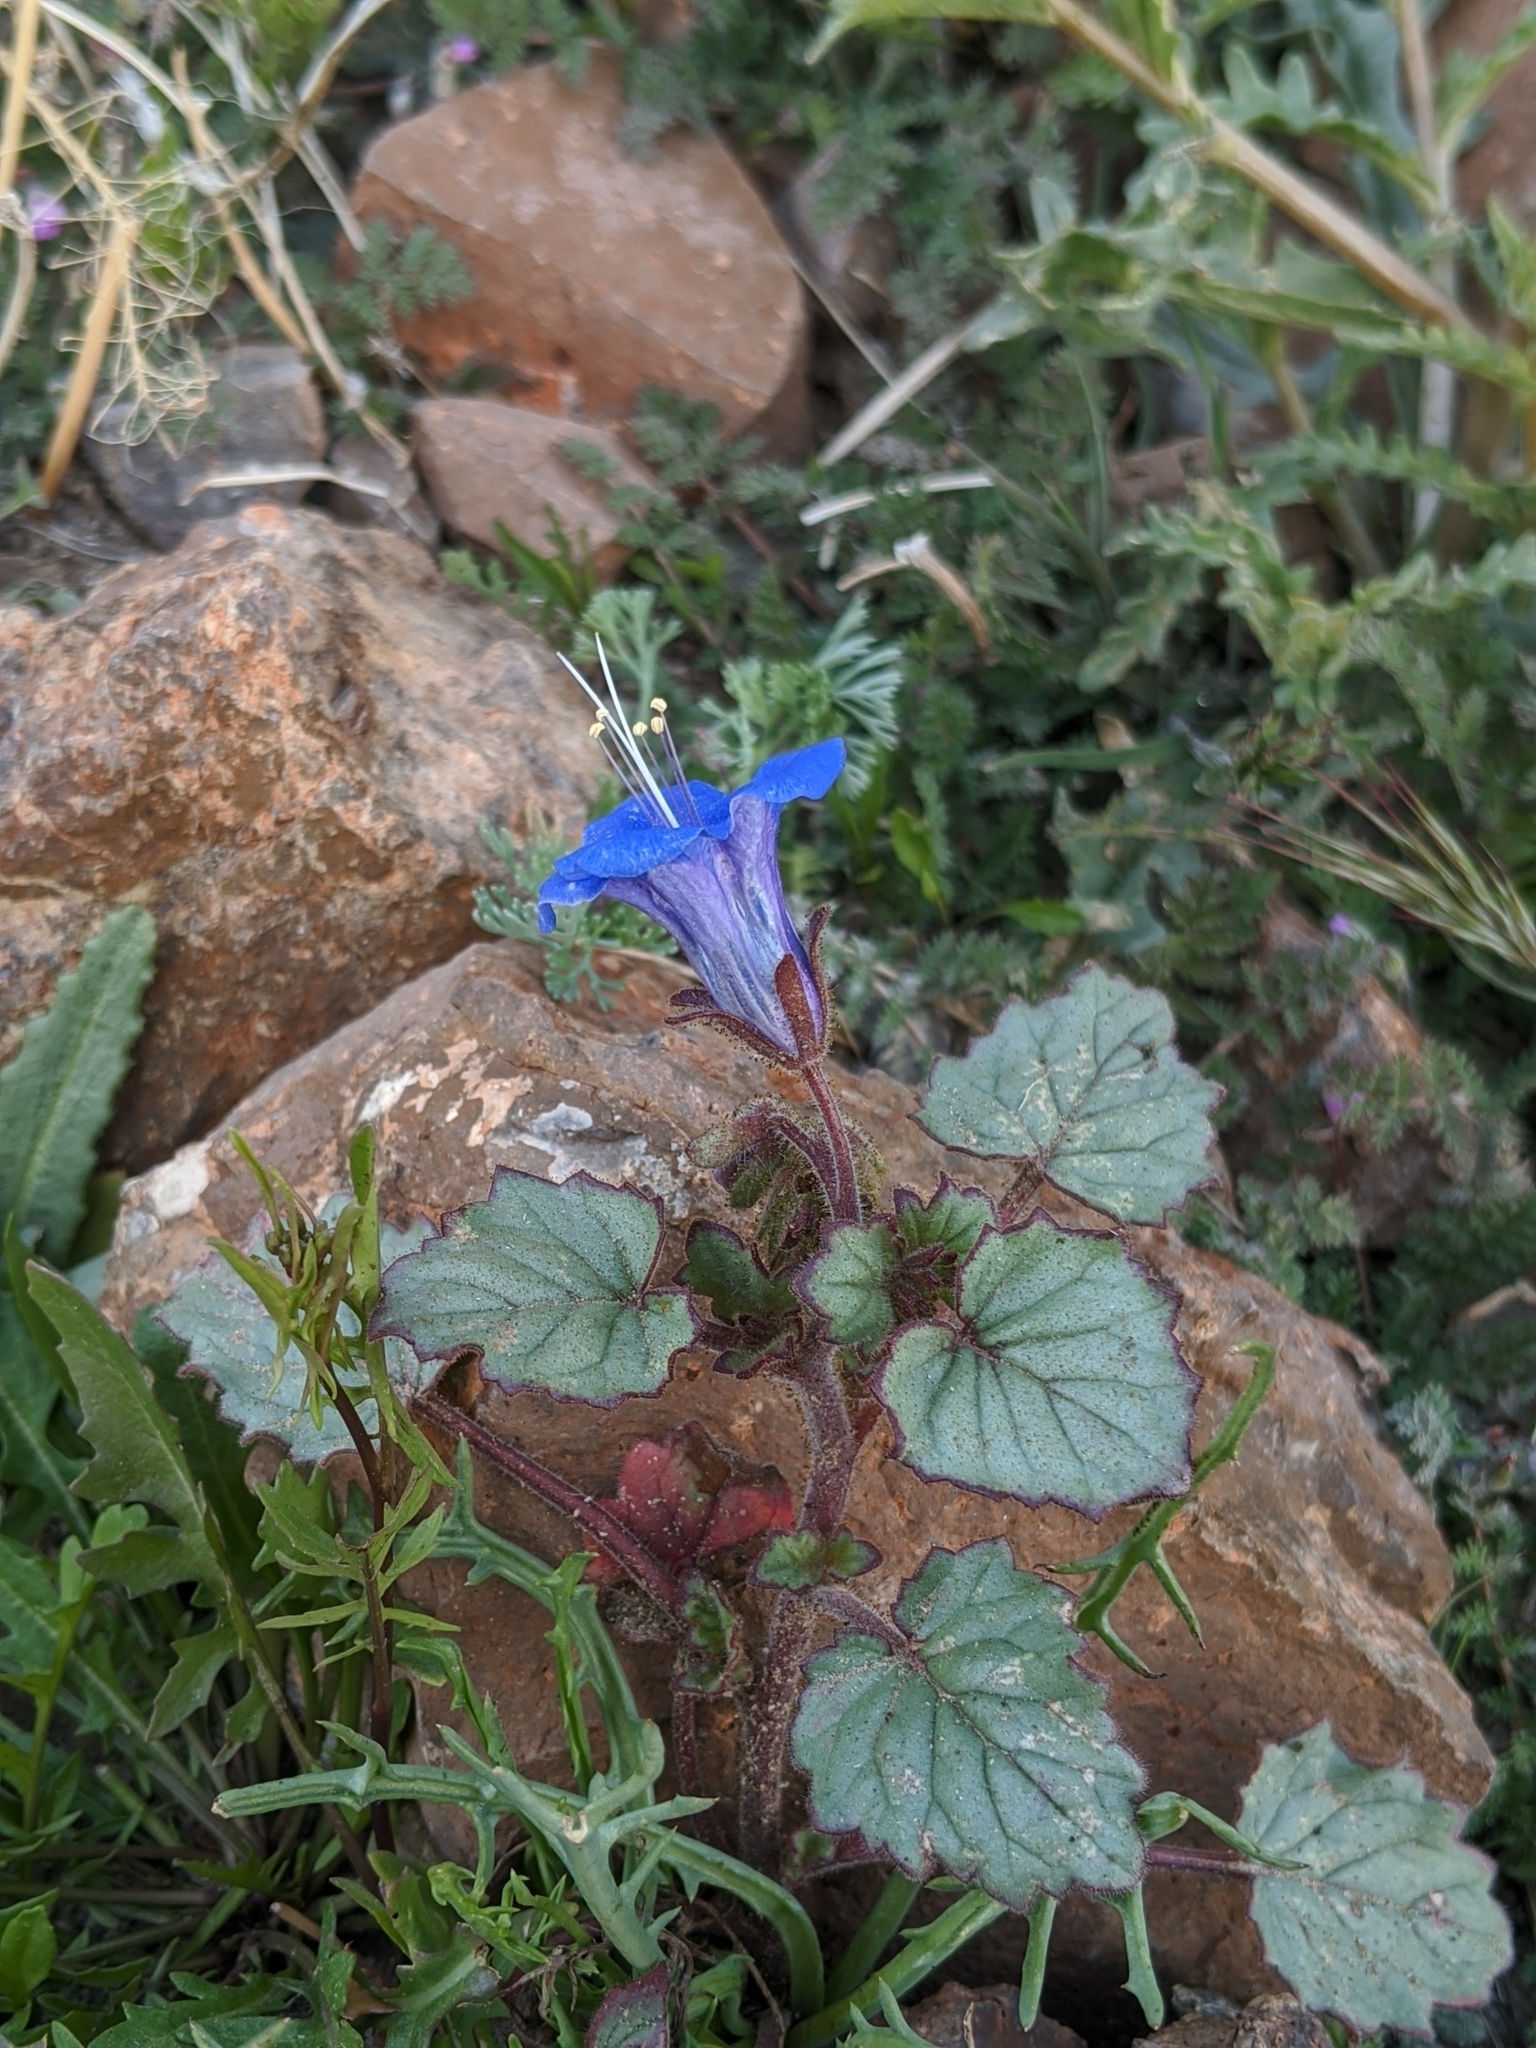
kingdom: Plantae
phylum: Tracheophyta
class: Magnoliopsida
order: Boraginales
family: Hydrophyllaceae
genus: Phacelia
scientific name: Phacelia campanularia
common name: California bluebell
